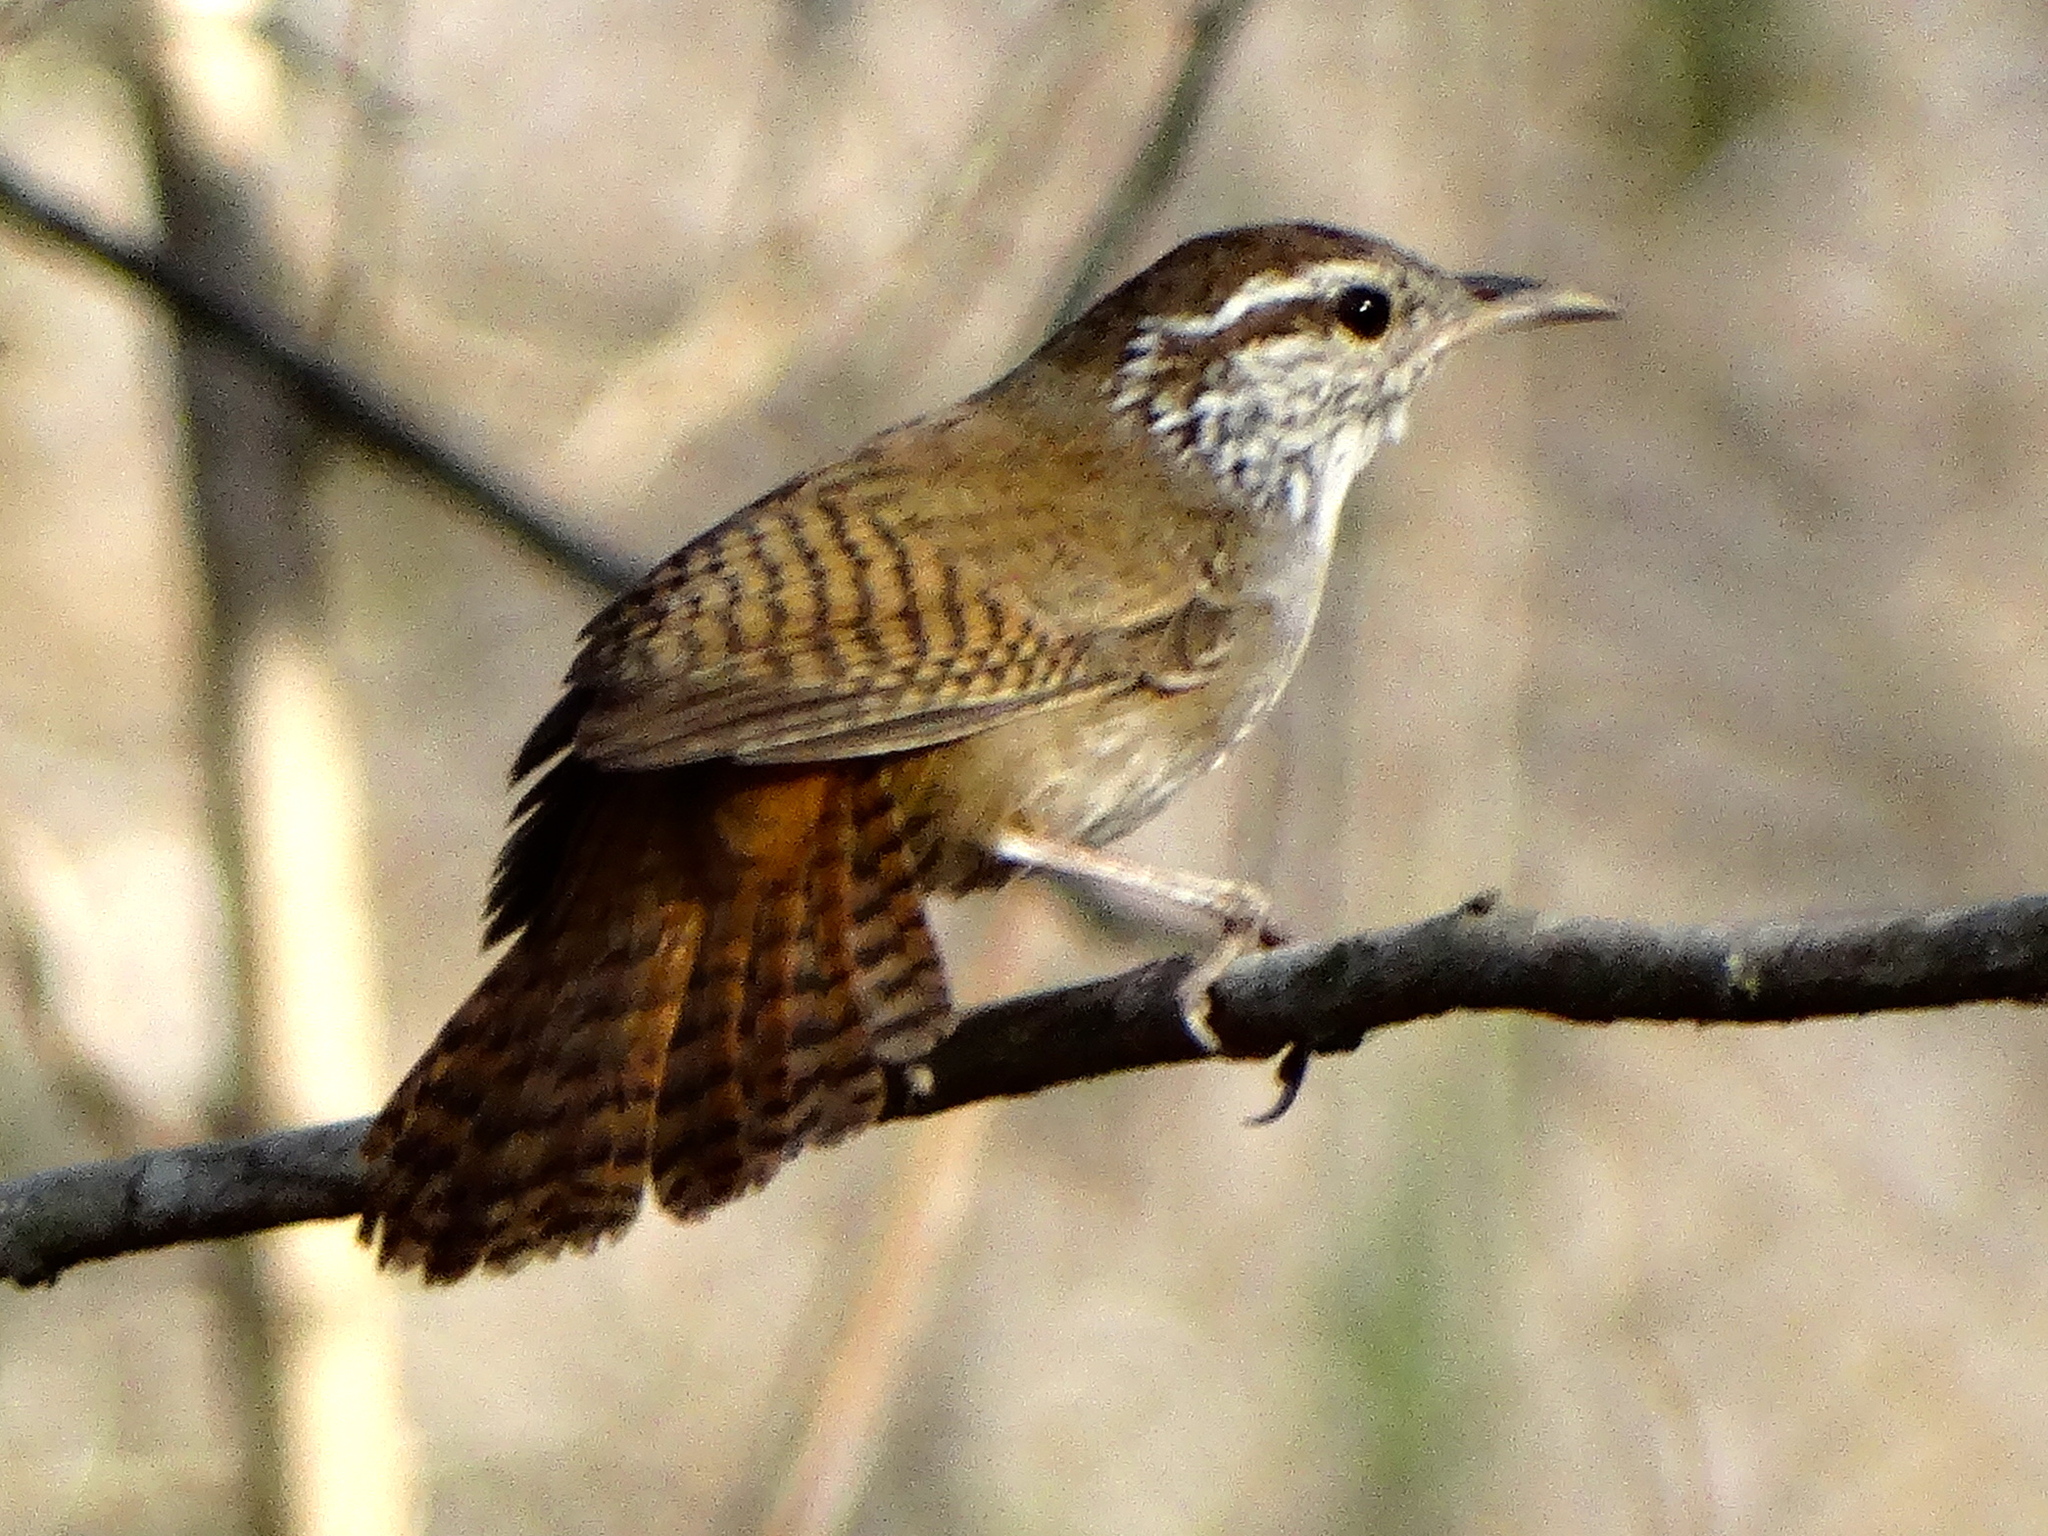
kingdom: Animalia
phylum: Chordata
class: Aves
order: Passeriformes
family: Troglodytidae
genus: Thryophilus
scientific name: Thryophilus sinaloa
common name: Sinaloa wren
